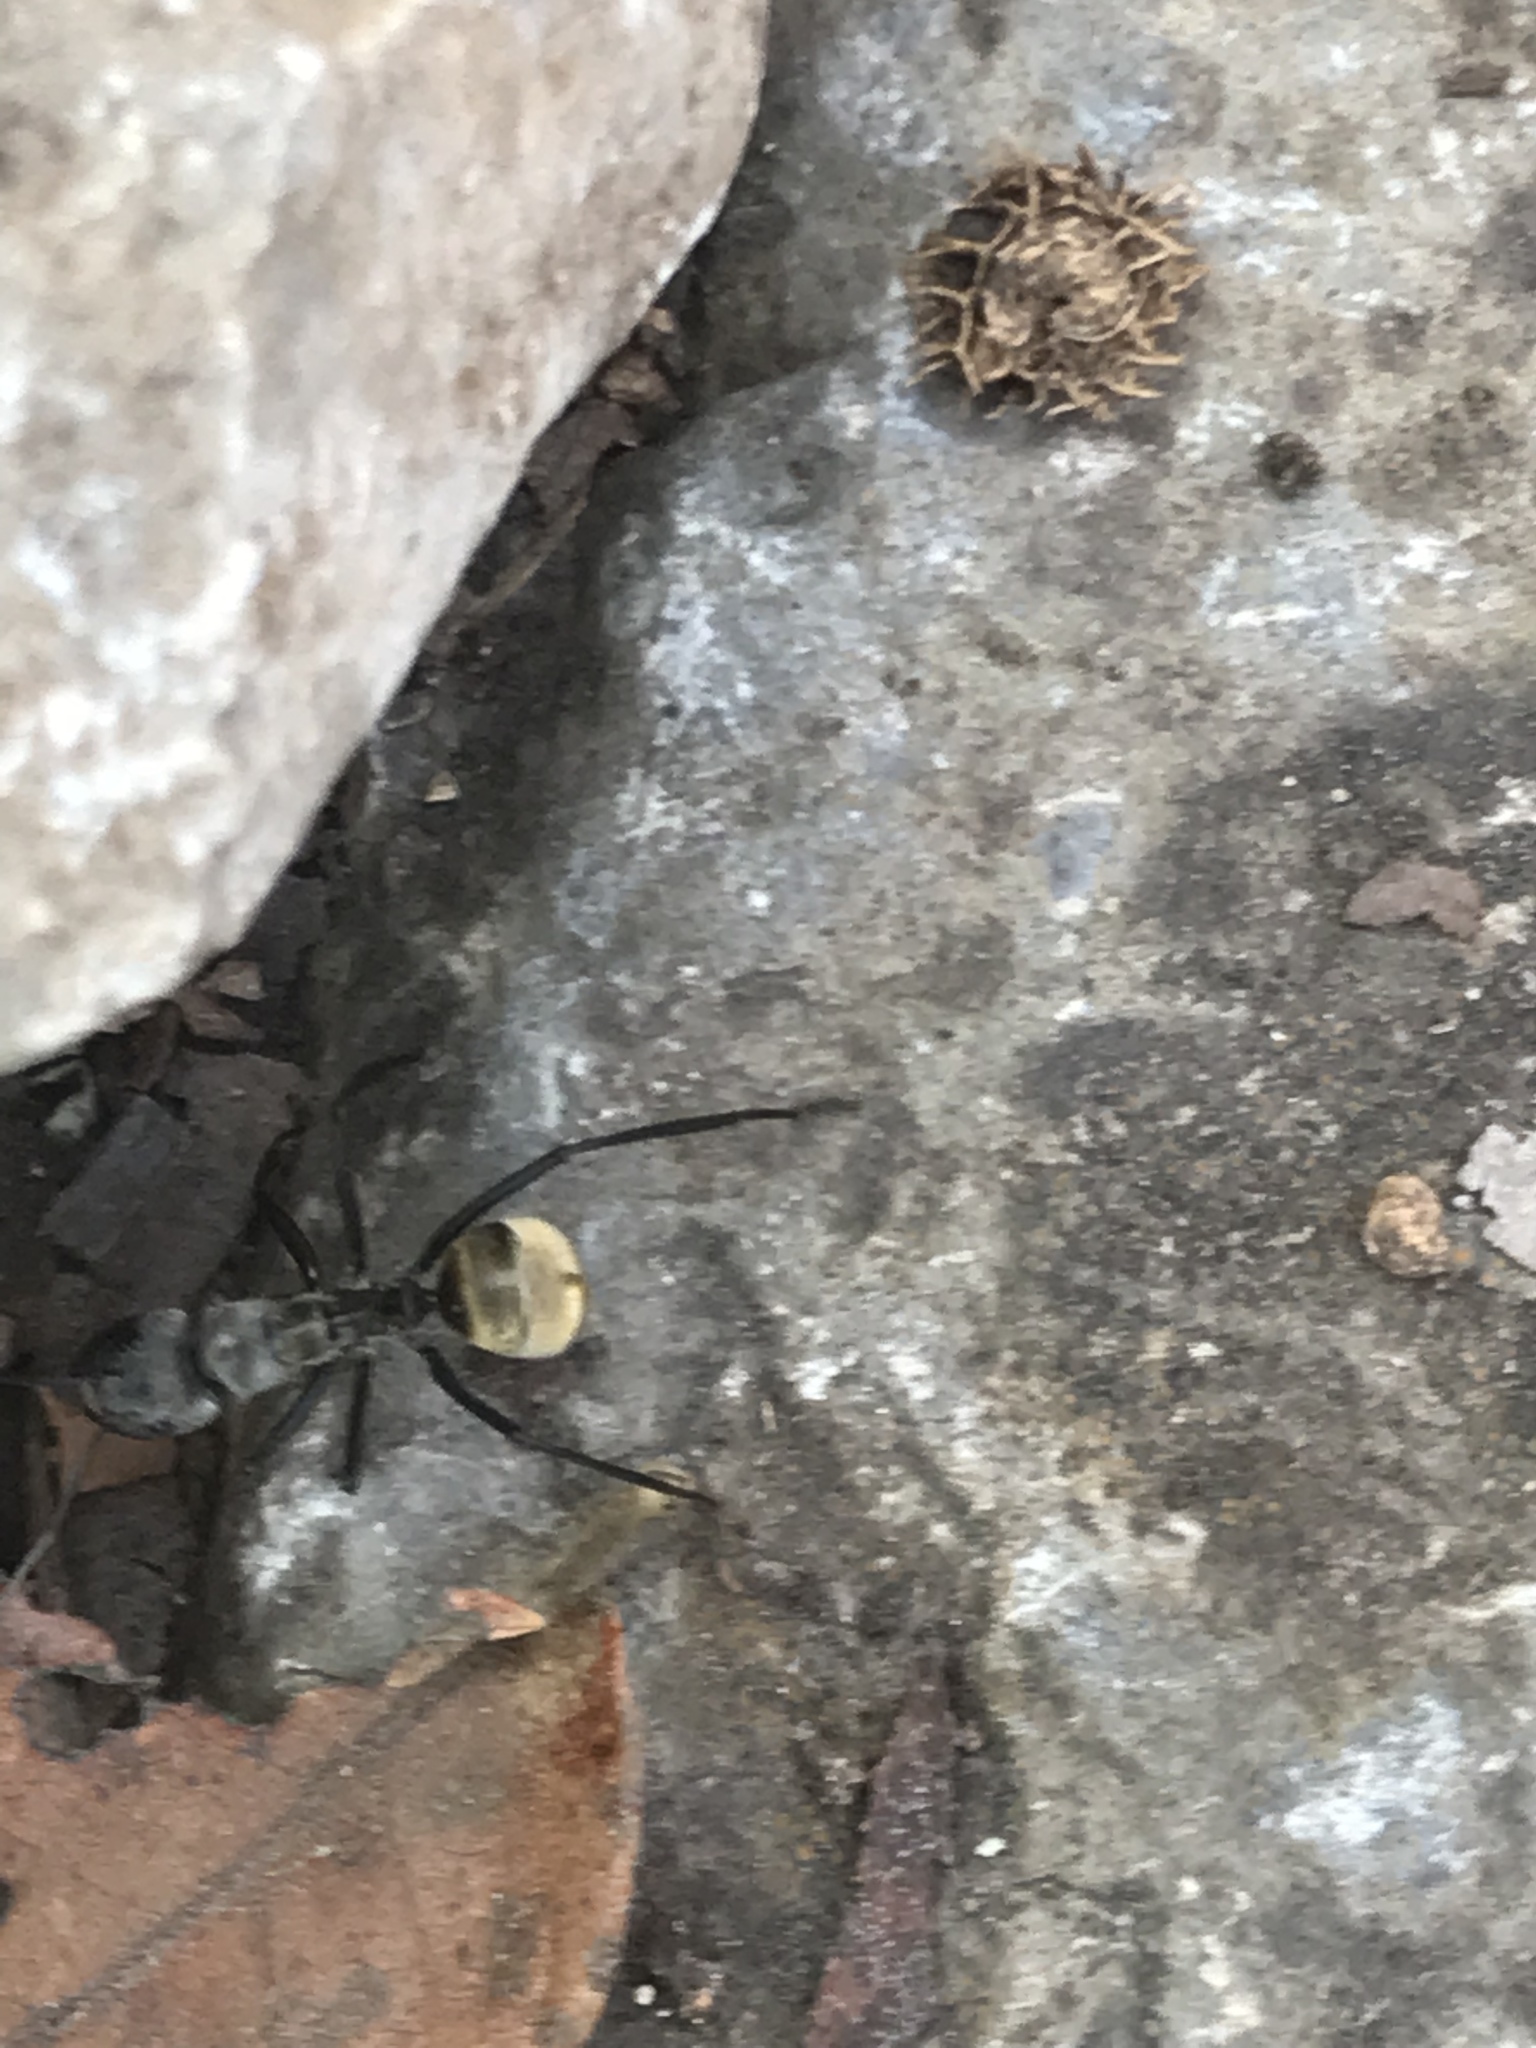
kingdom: Animalia
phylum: Arthropoda
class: Insecta
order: Hymenoptera
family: Formicidae
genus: Camponotus
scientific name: Camponotus sericeiventris
